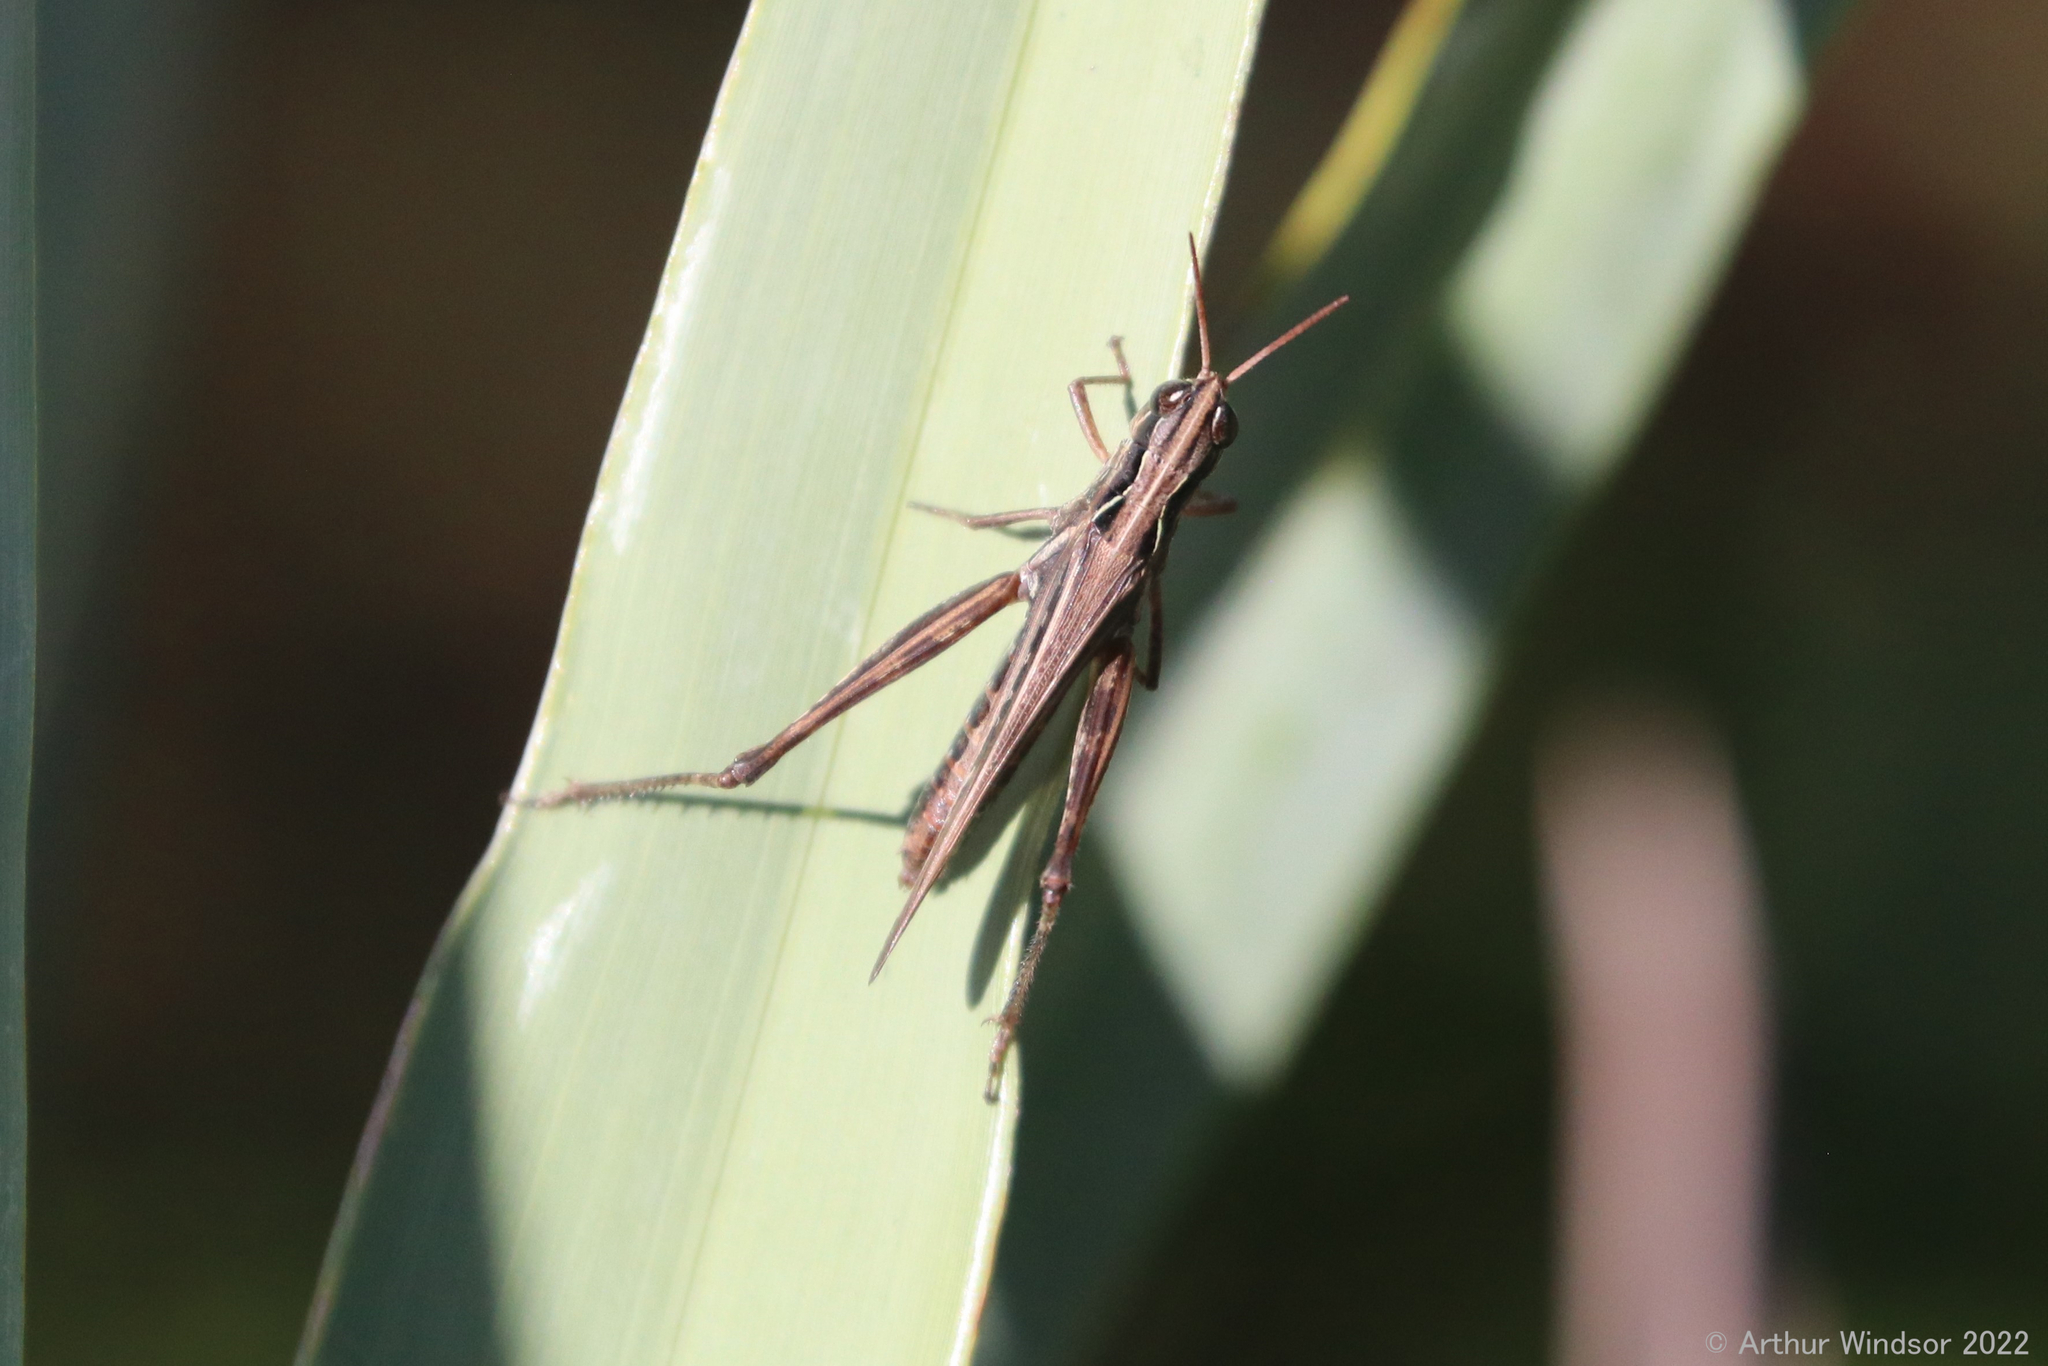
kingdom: Animalia
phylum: Arthropoda
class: Insecta
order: Orthoptera
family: Acrididae
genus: Orphulella
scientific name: Orphulella pelidna
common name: Spotted-wing grasshopper
